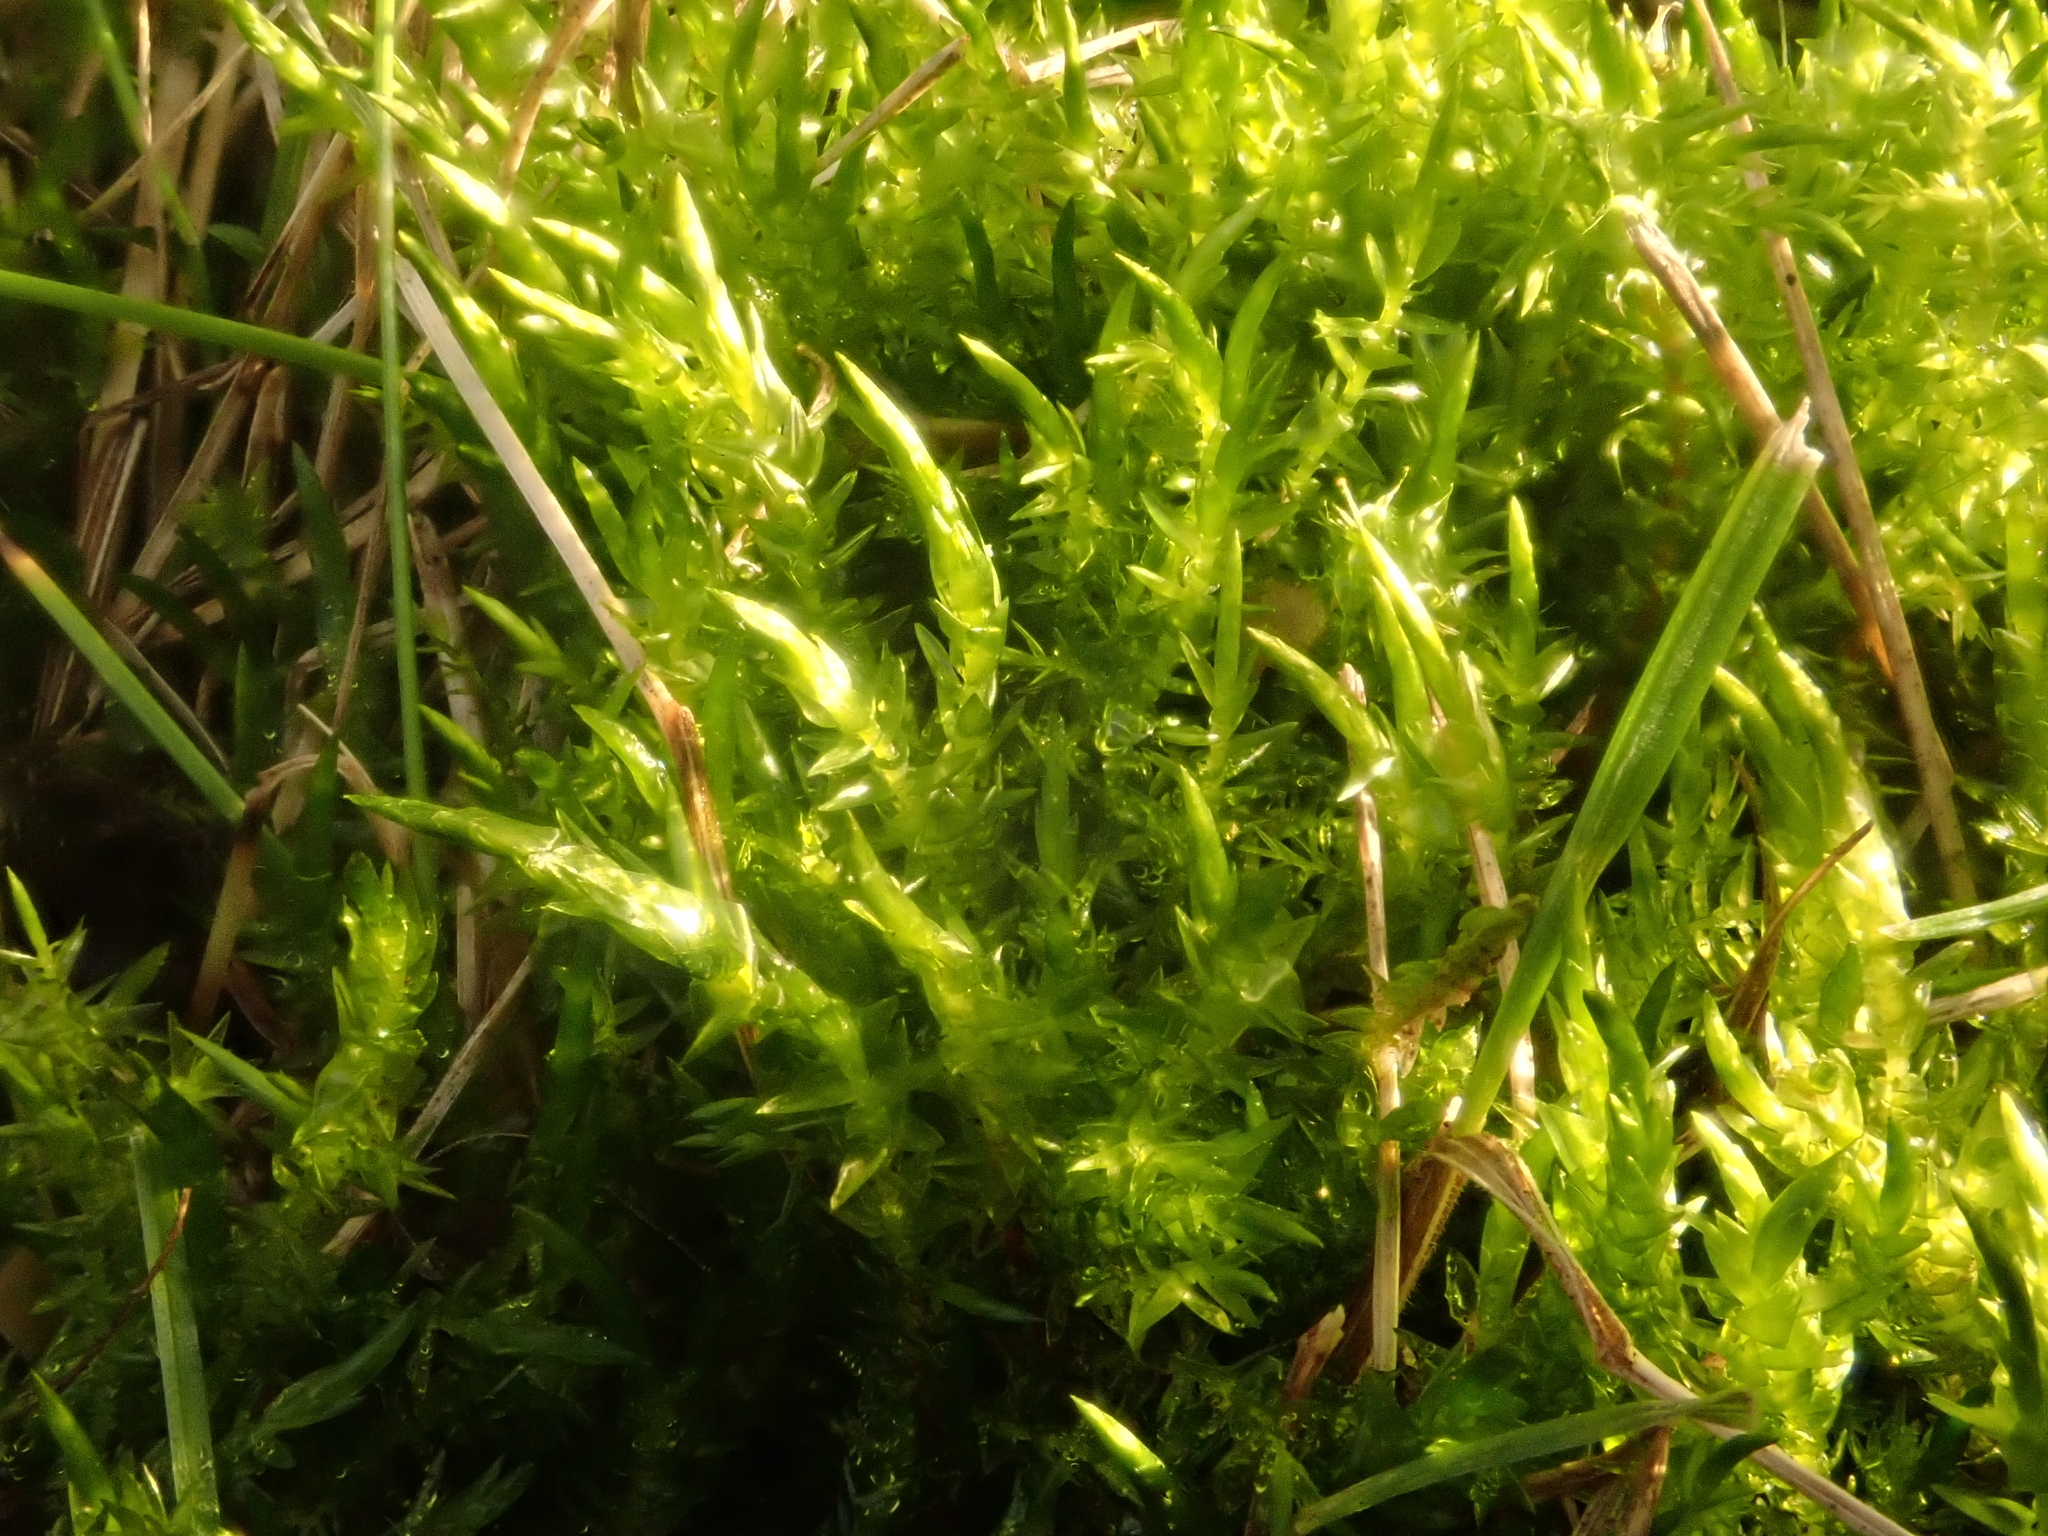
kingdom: Plantae
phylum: Bryophyta
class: Bryopsida
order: Hypnales
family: Pylaisiaceae
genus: Calliergonella
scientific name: Calliergonella cuspidata
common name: Common large wetland moss
